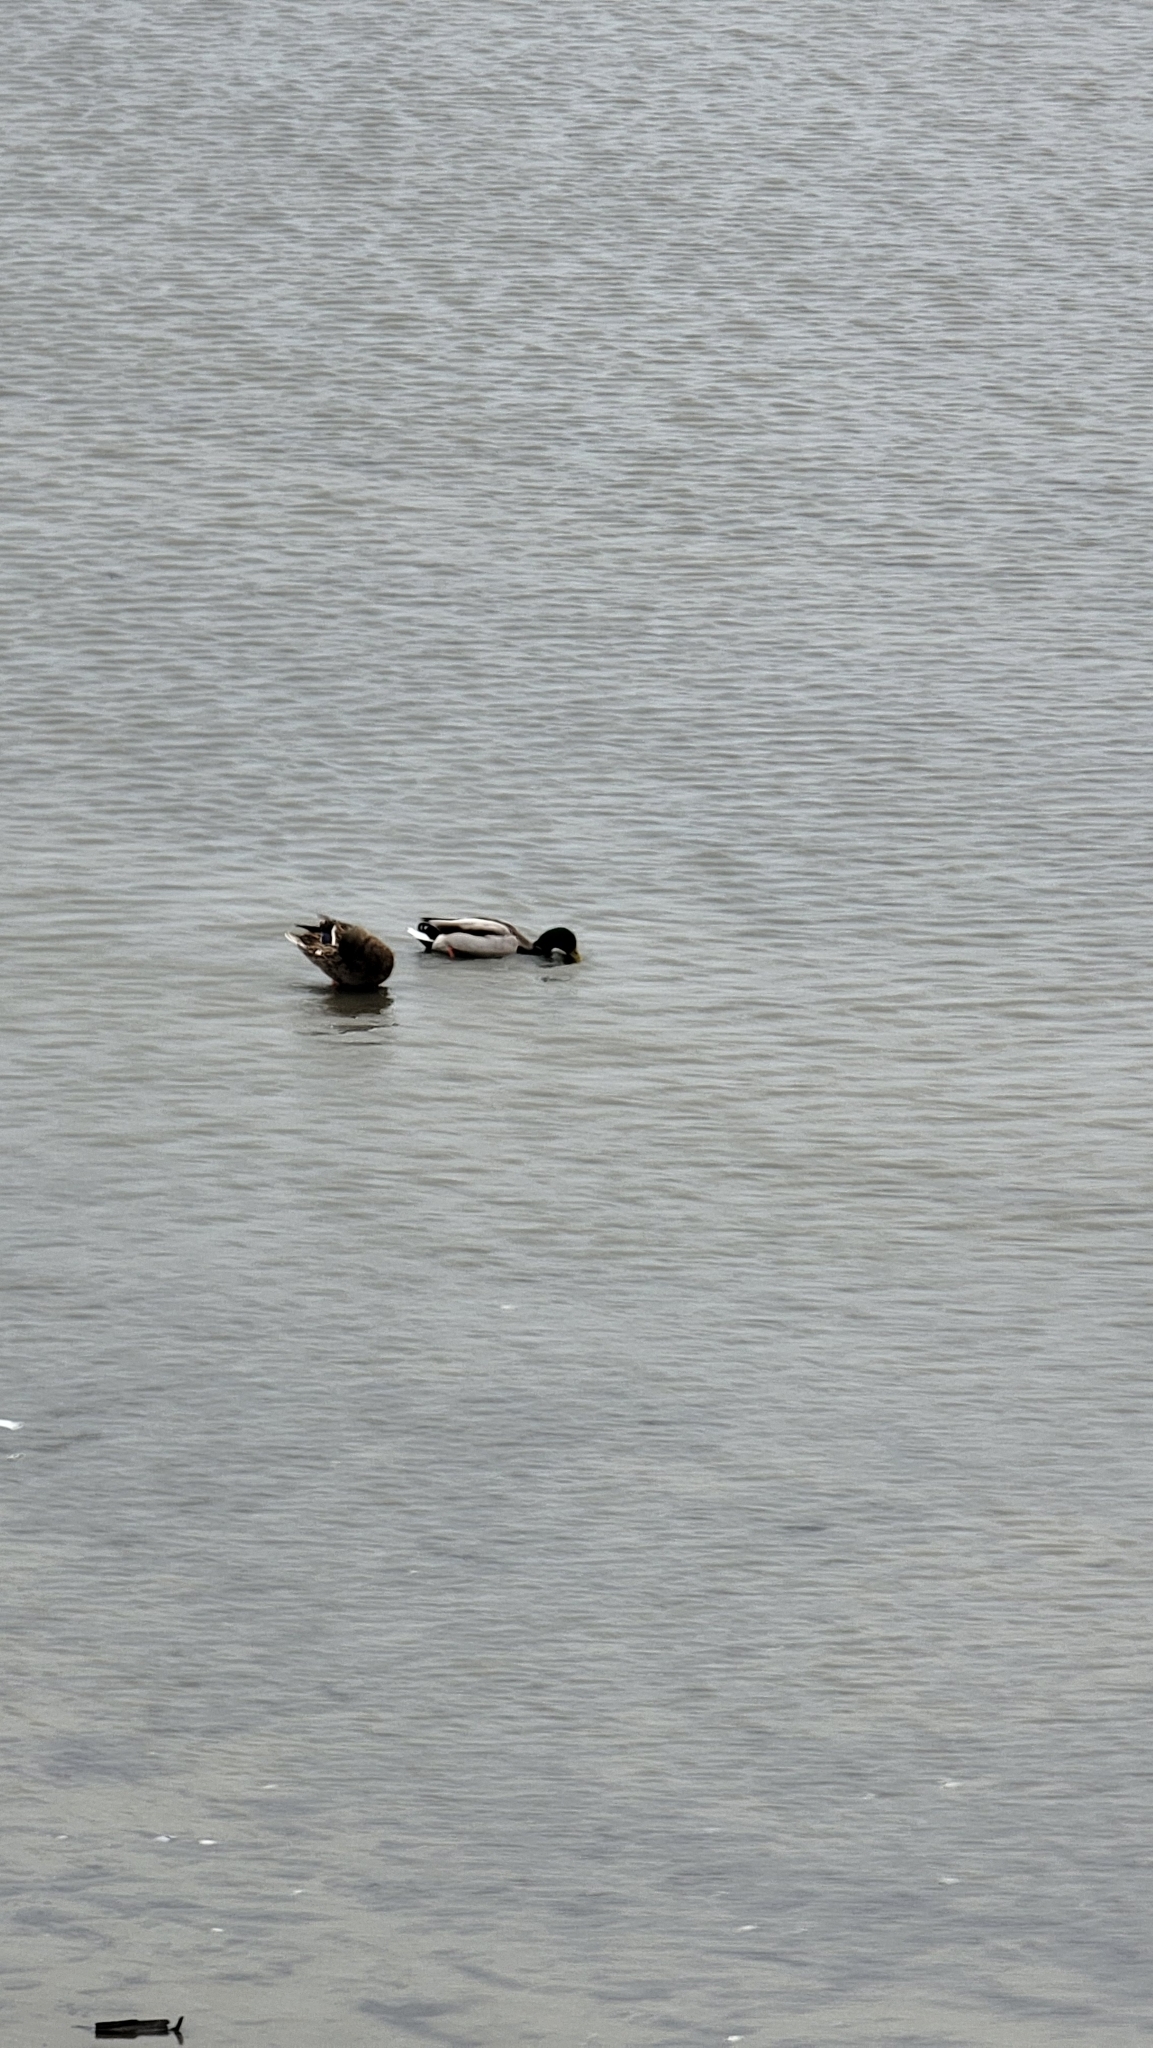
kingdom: Animalia
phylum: Chordata
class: Aves
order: Anseriformes
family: Anatidae
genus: Anas
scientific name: Anas platyrhynchos
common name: Mallard
